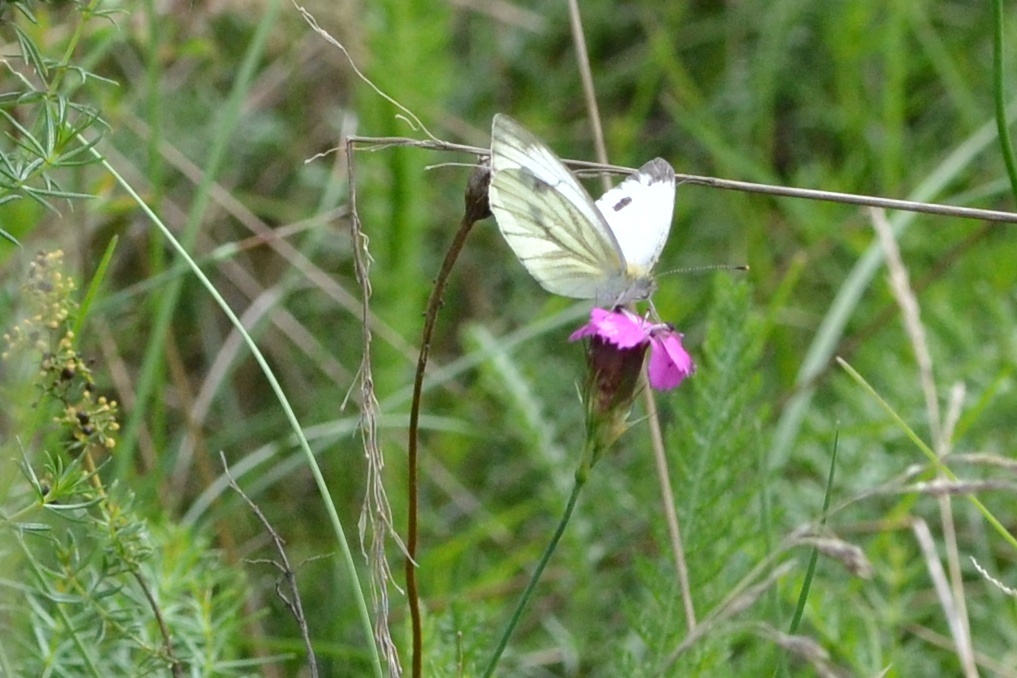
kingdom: Animalia
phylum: Arthropoda
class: Insecta
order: Lepidoptera
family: Pieridae
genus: Pieris
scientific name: Pieris napi
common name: Green-veined white
